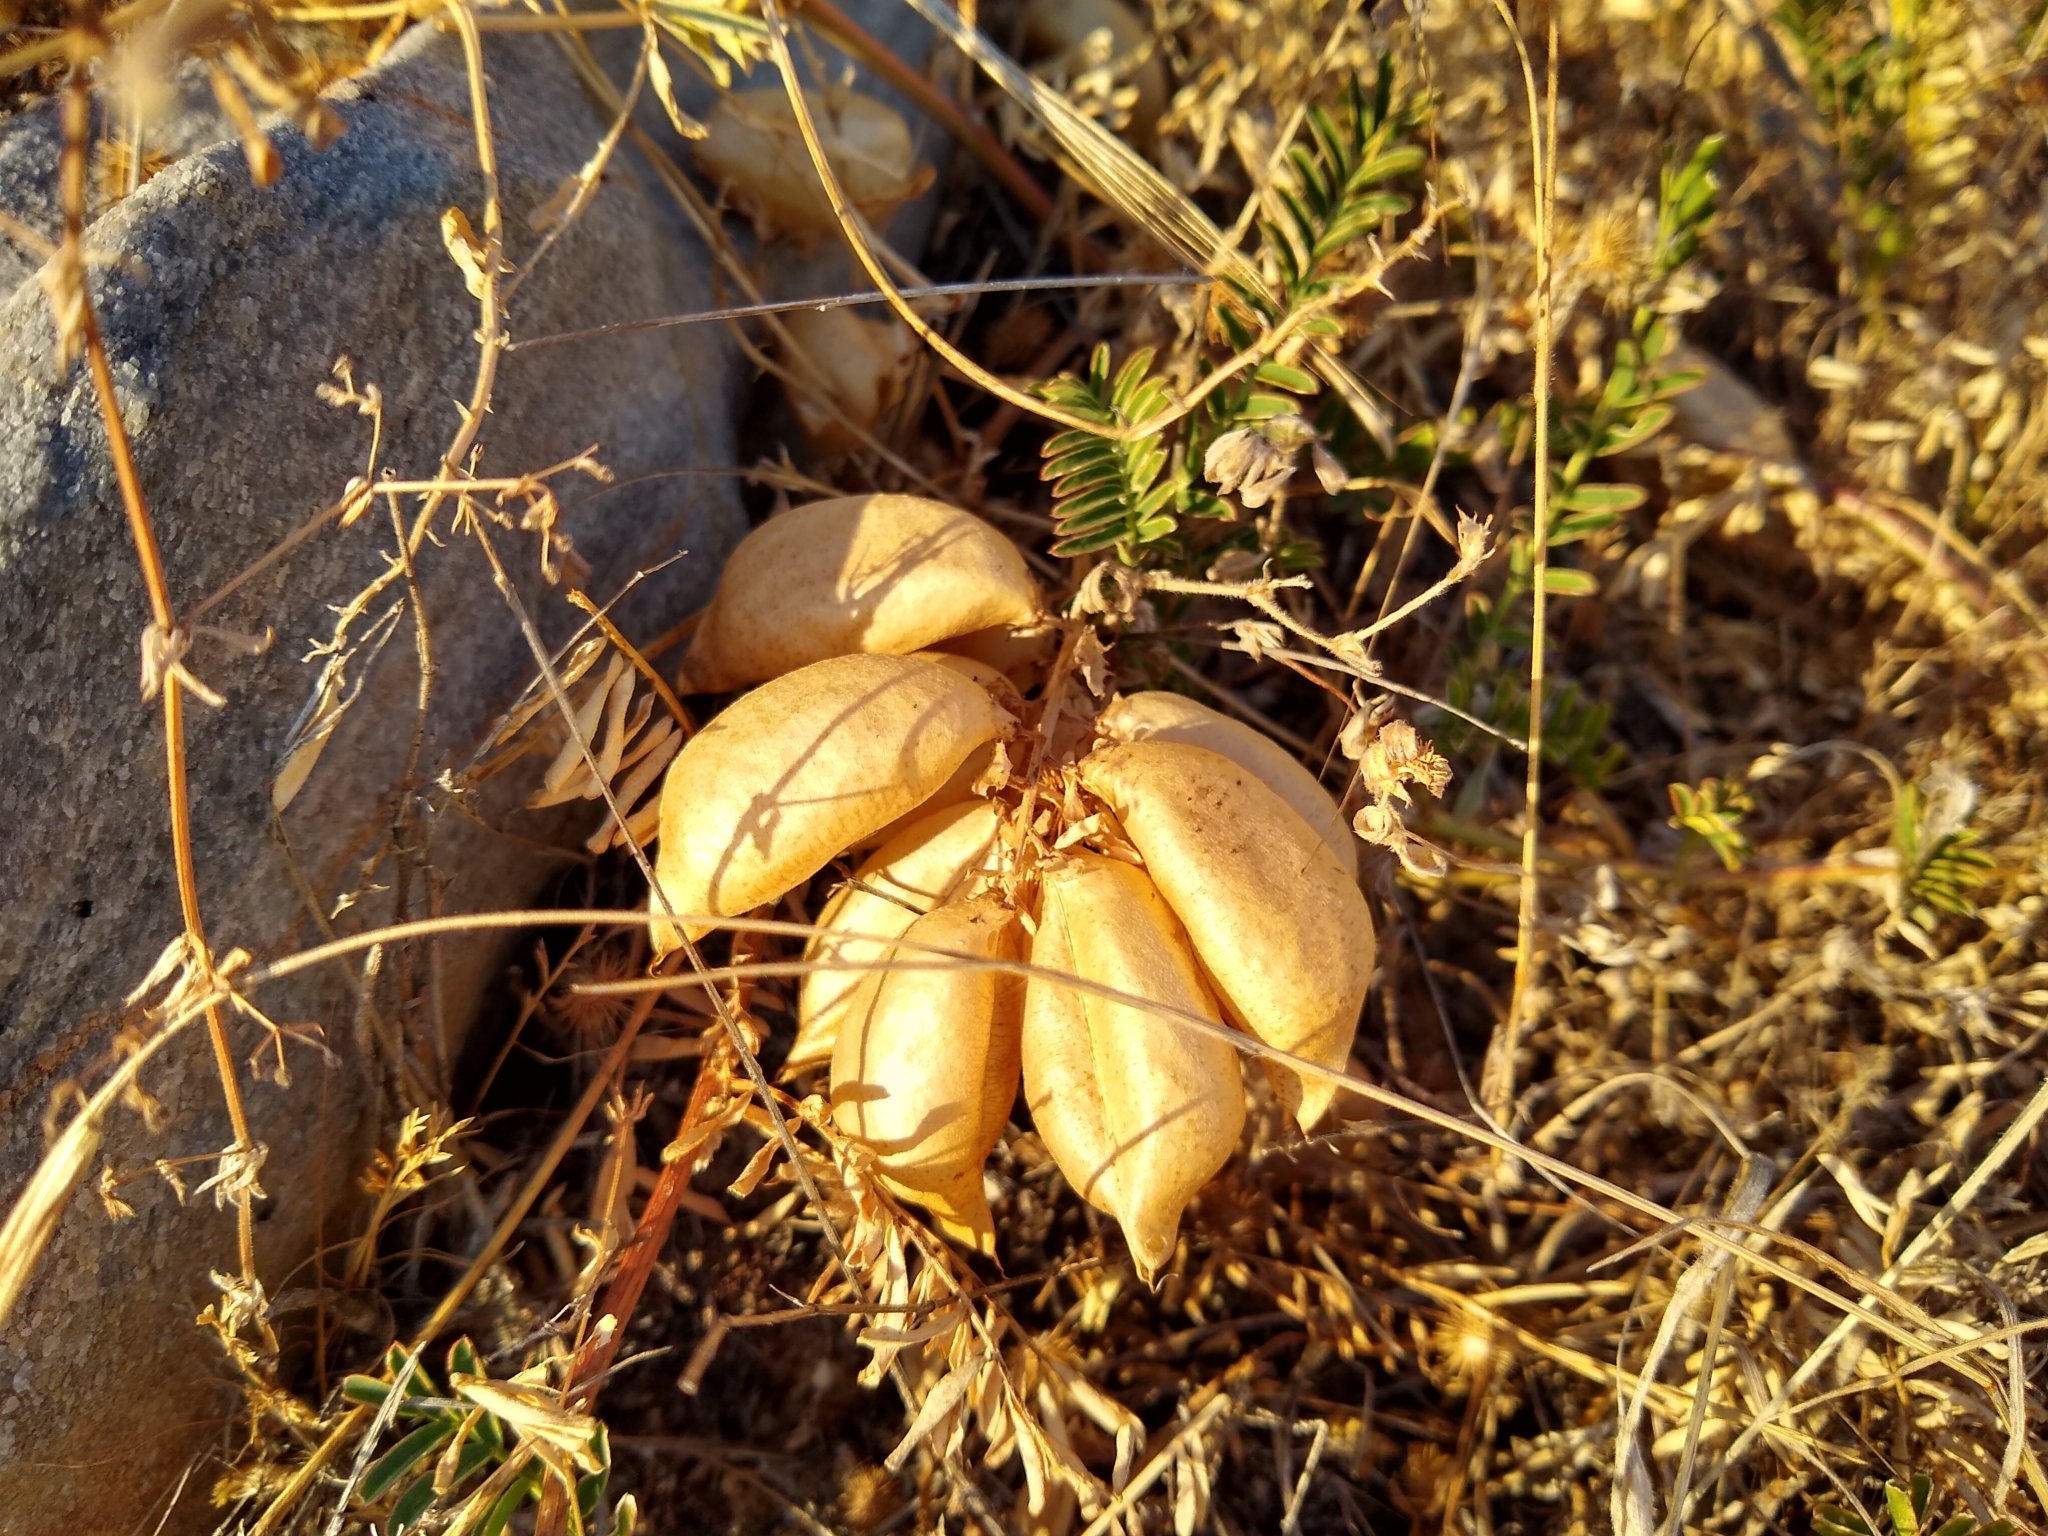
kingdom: Plantae
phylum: Tracheophyta
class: Magnoliopsida
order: Fabales
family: Fabaceae
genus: Astragalus
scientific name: Astragalus douglasii
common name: Jacumba milkvetch
